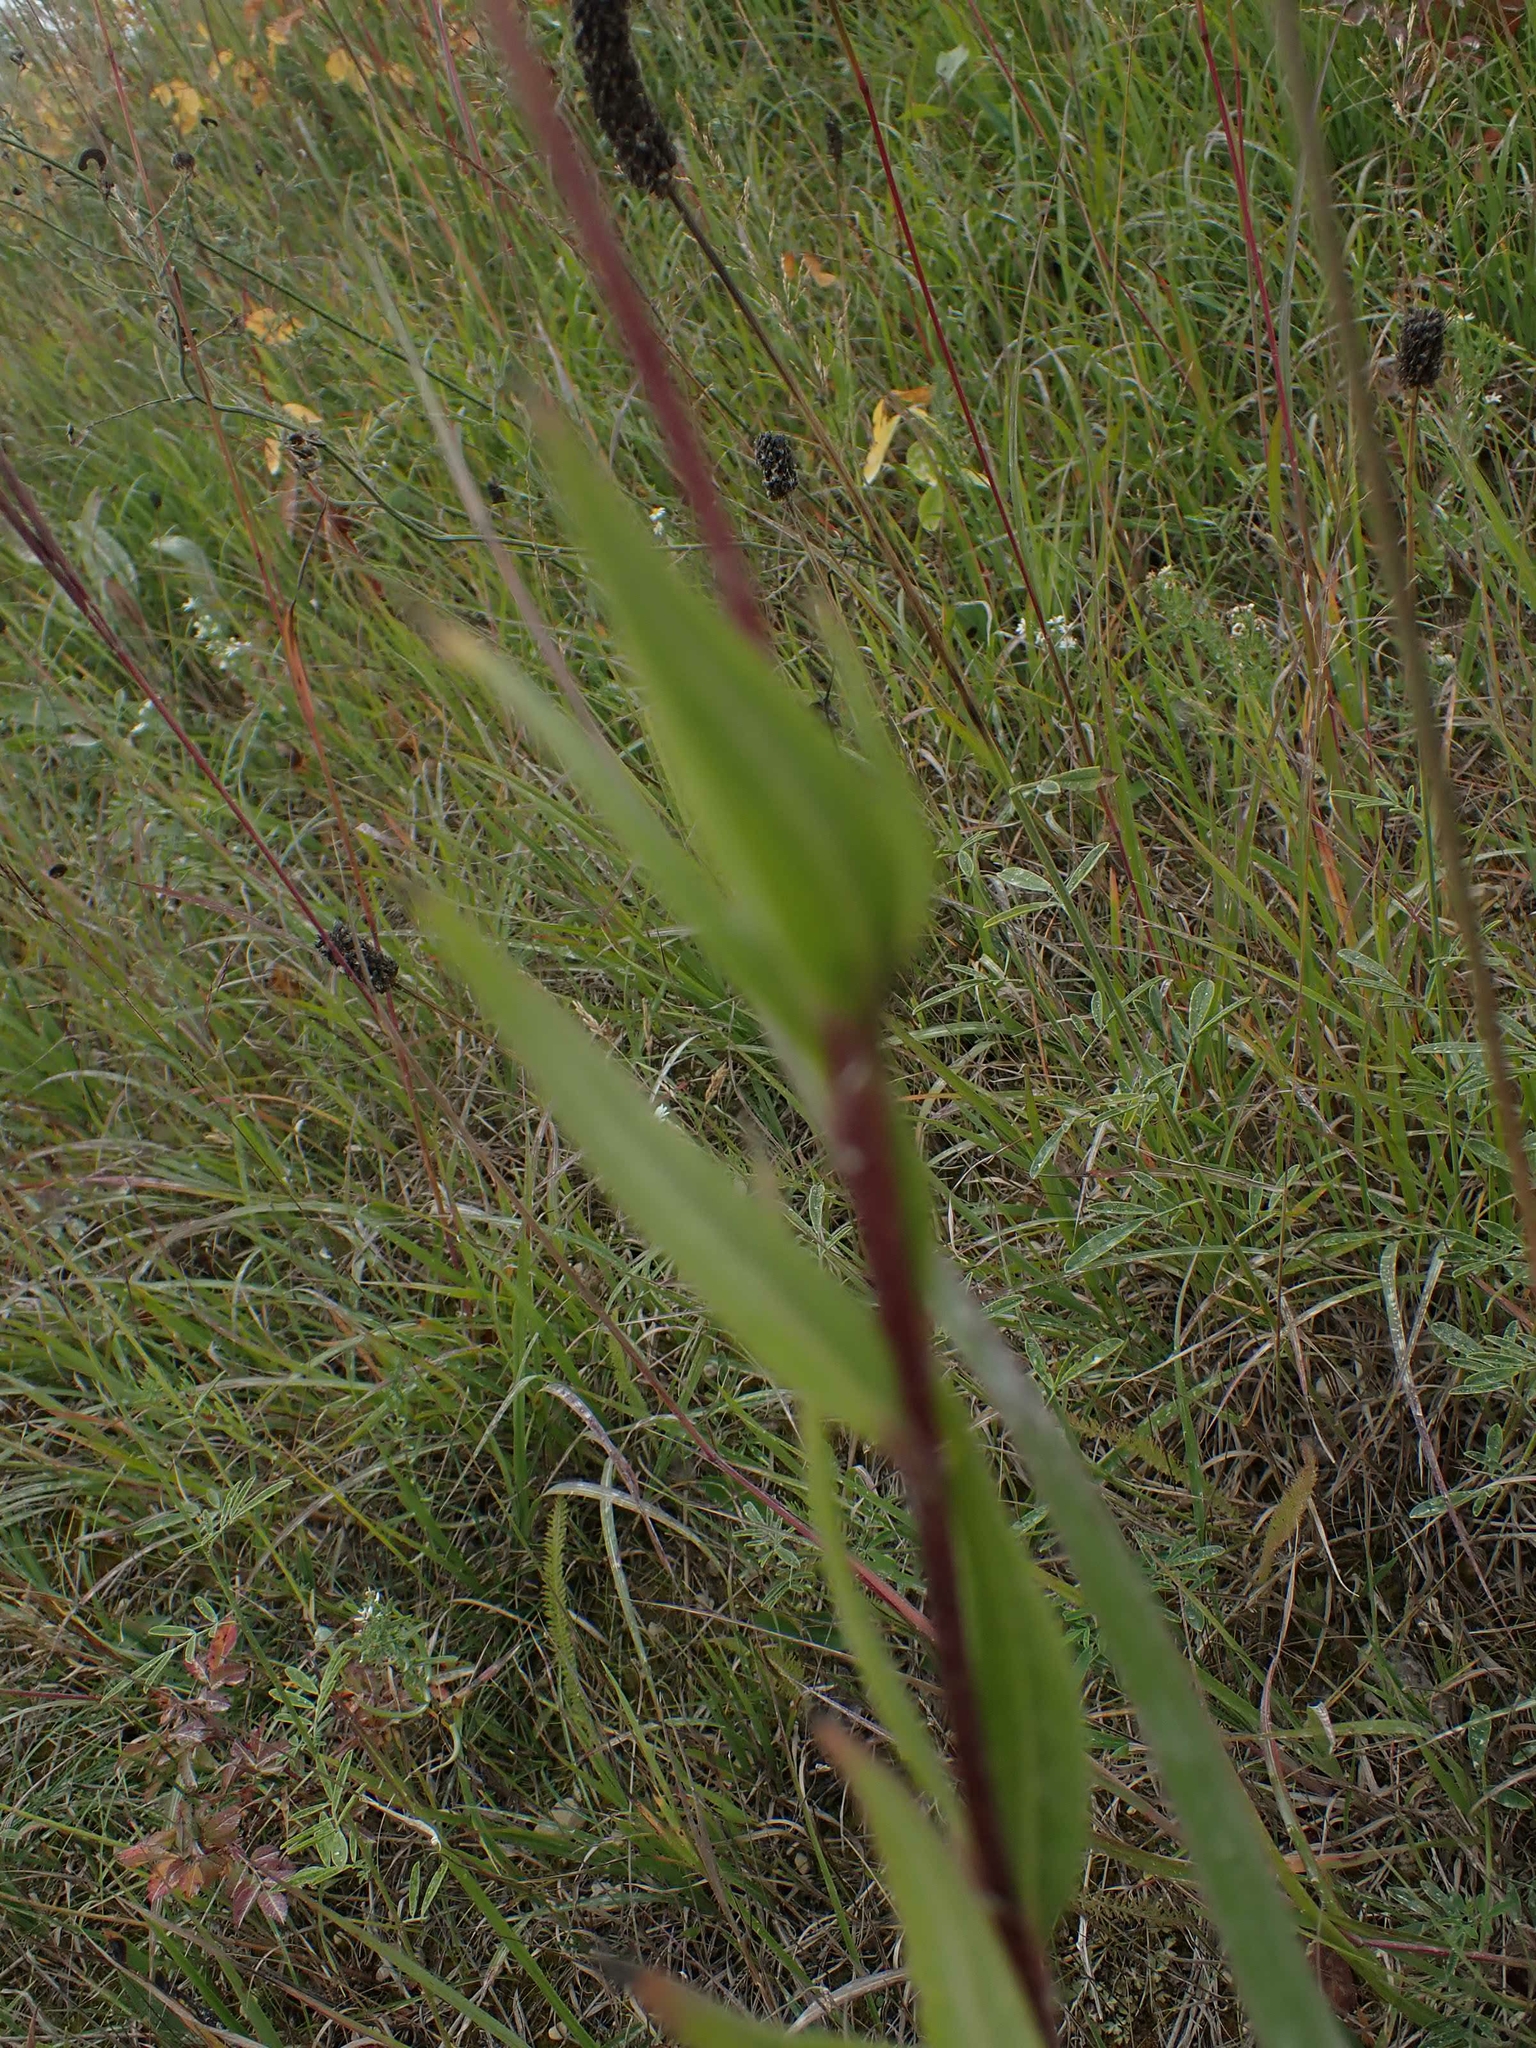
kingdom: Plantae
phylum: Tracheophyta
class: Magnoliopsida
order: Asterales
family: Asteraceae
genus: Helianthus
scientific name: Helianthus nuttallii
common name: Nuttall's sunflower
